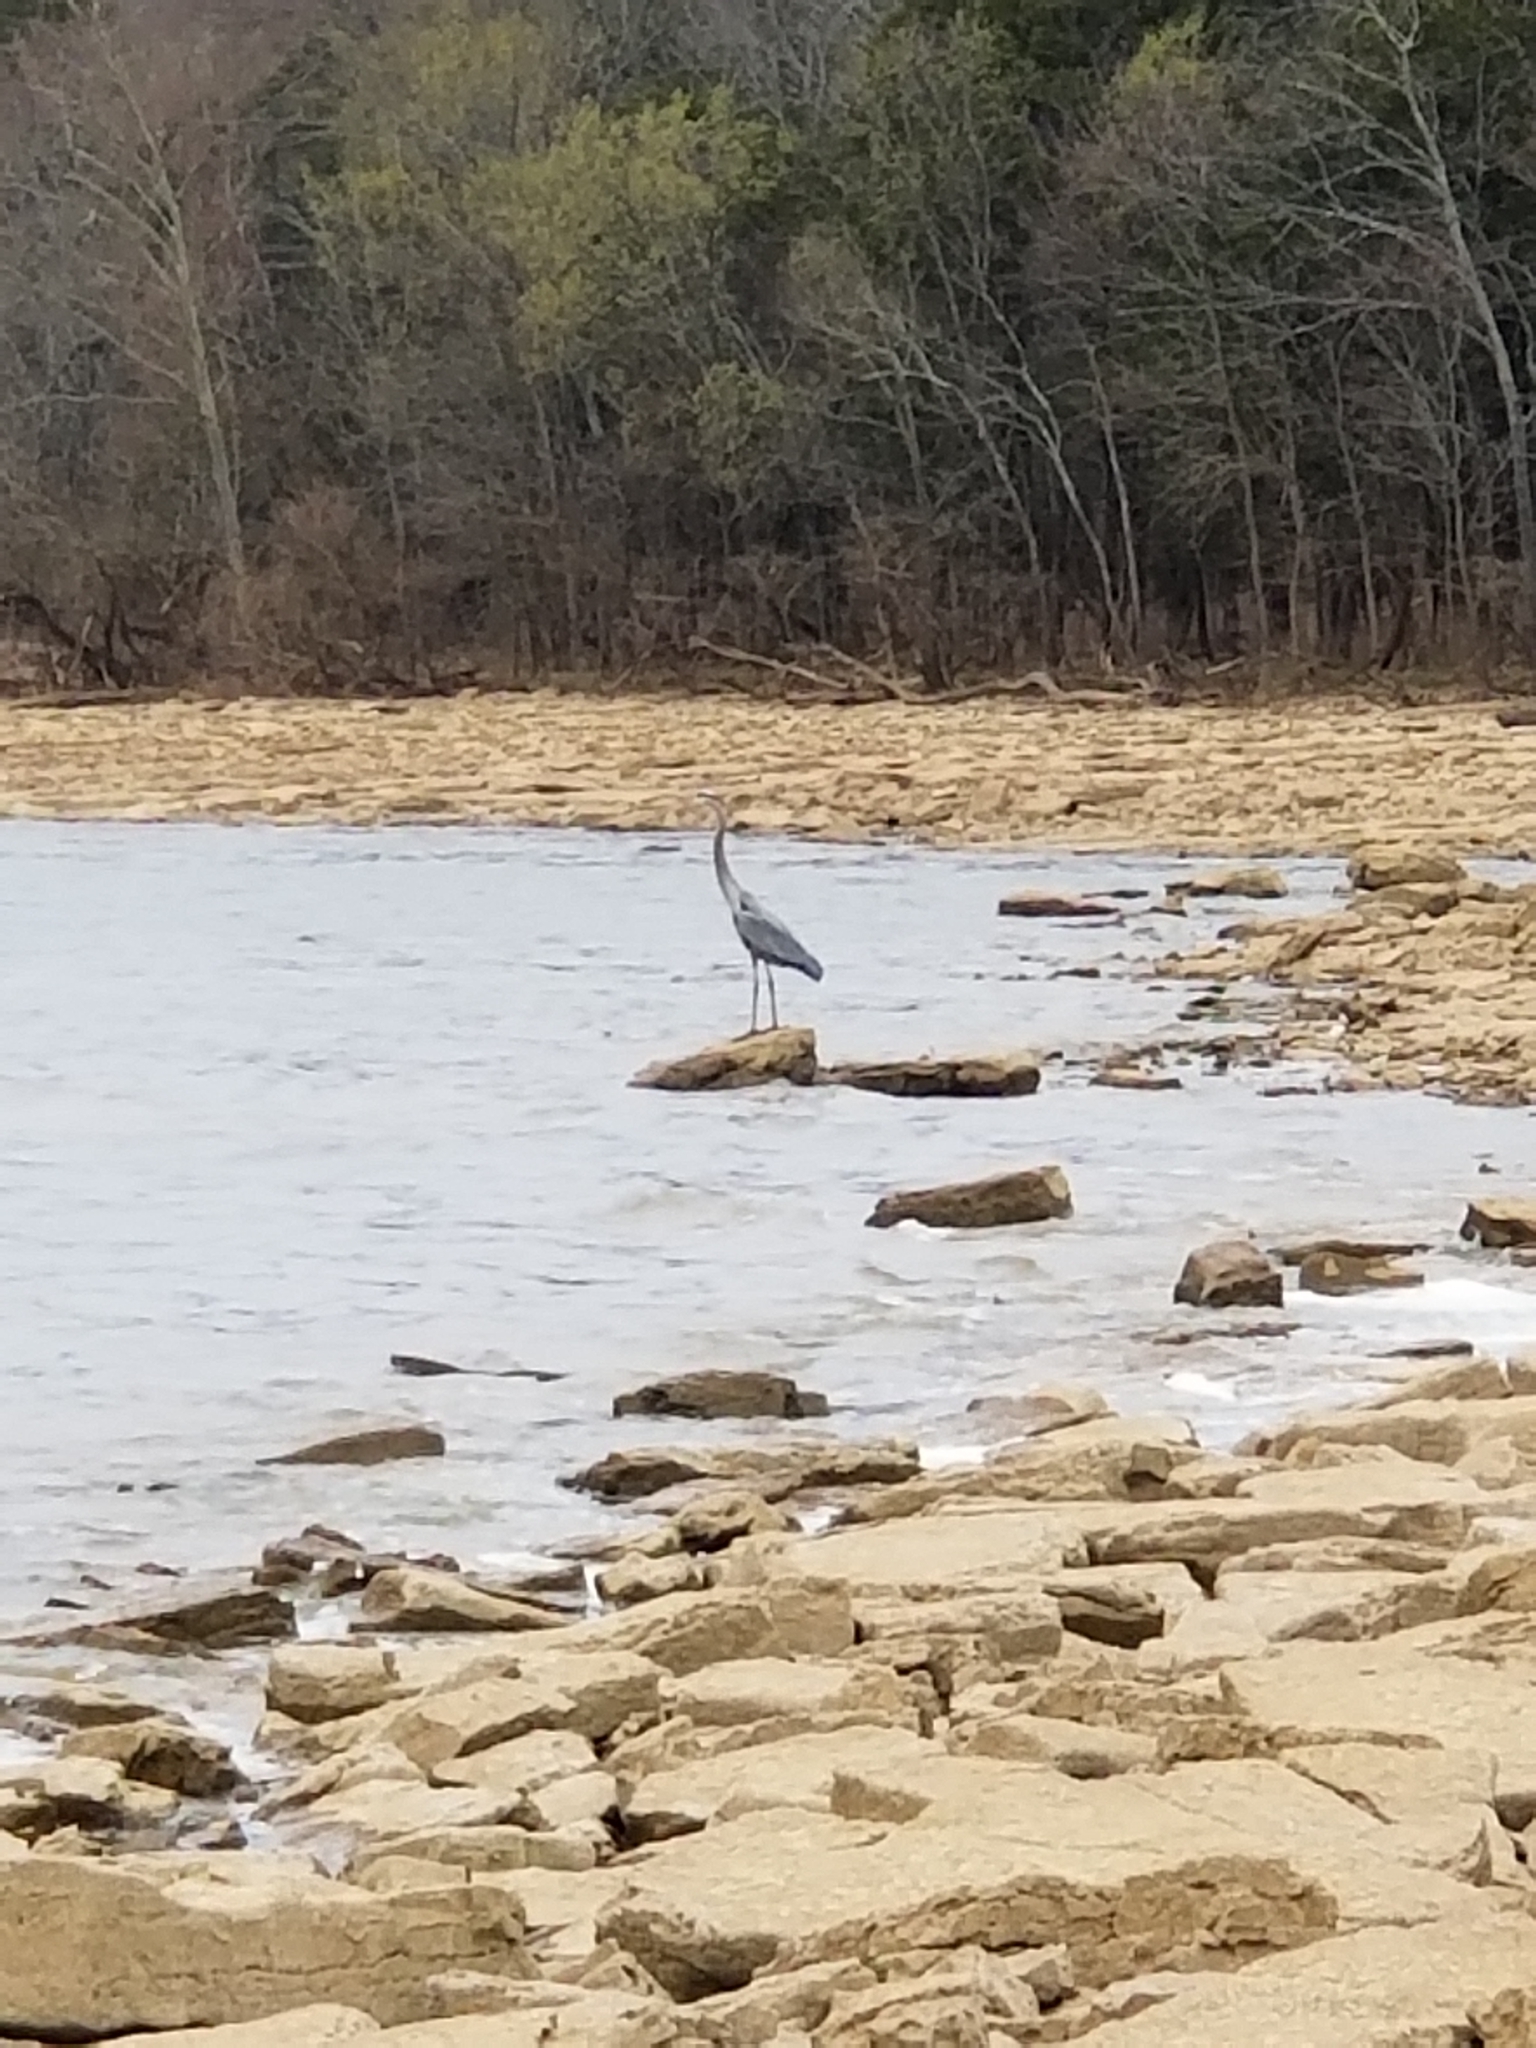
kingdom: Animalia
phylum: Chordata
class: Aves
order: Pelecaniformes
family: Ardeidae
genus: Ardea
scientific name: Ardea herodias
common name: Great blue heron
